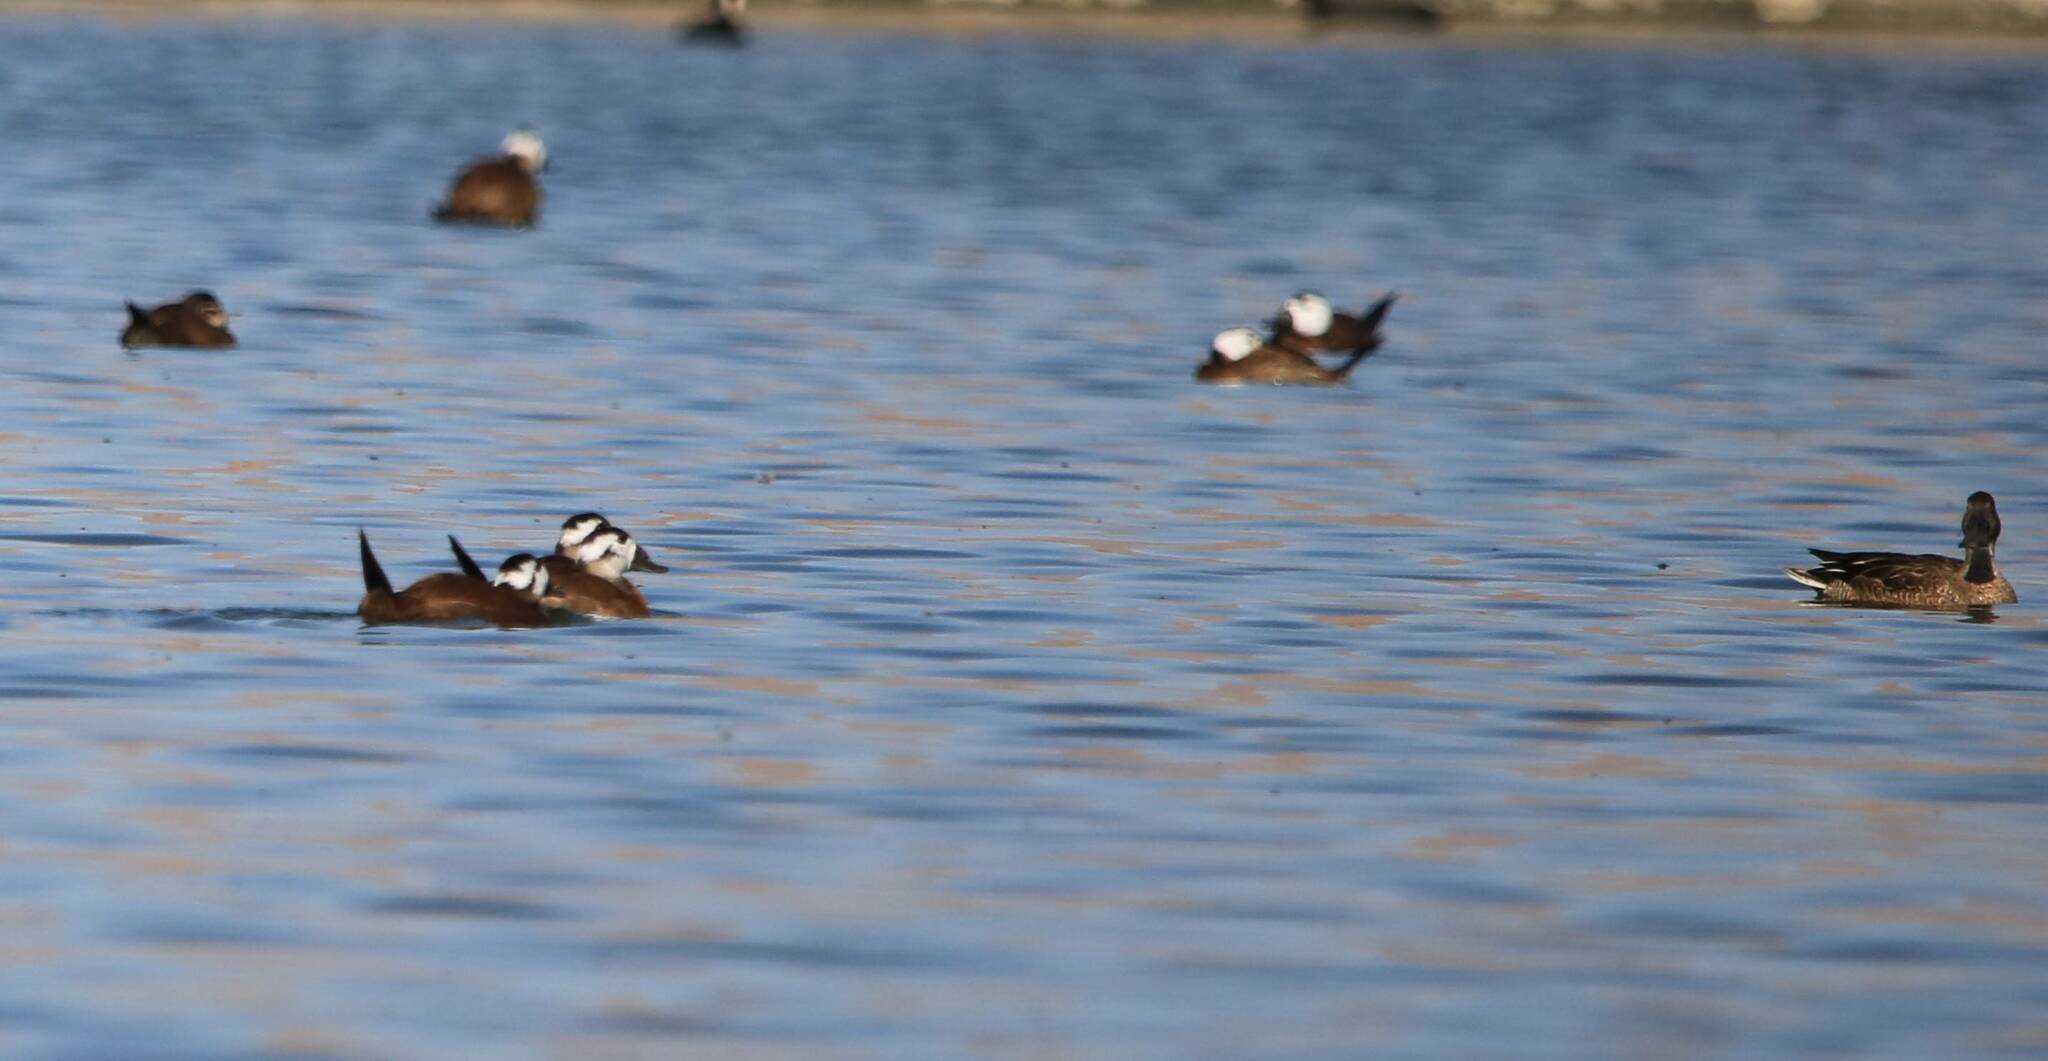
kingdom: Animalia
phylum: Chordata
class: Aves
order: Anseriformes
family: Anatidae
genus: Oxyura
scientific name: Oxyura leucocephala
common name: White-headed duck
